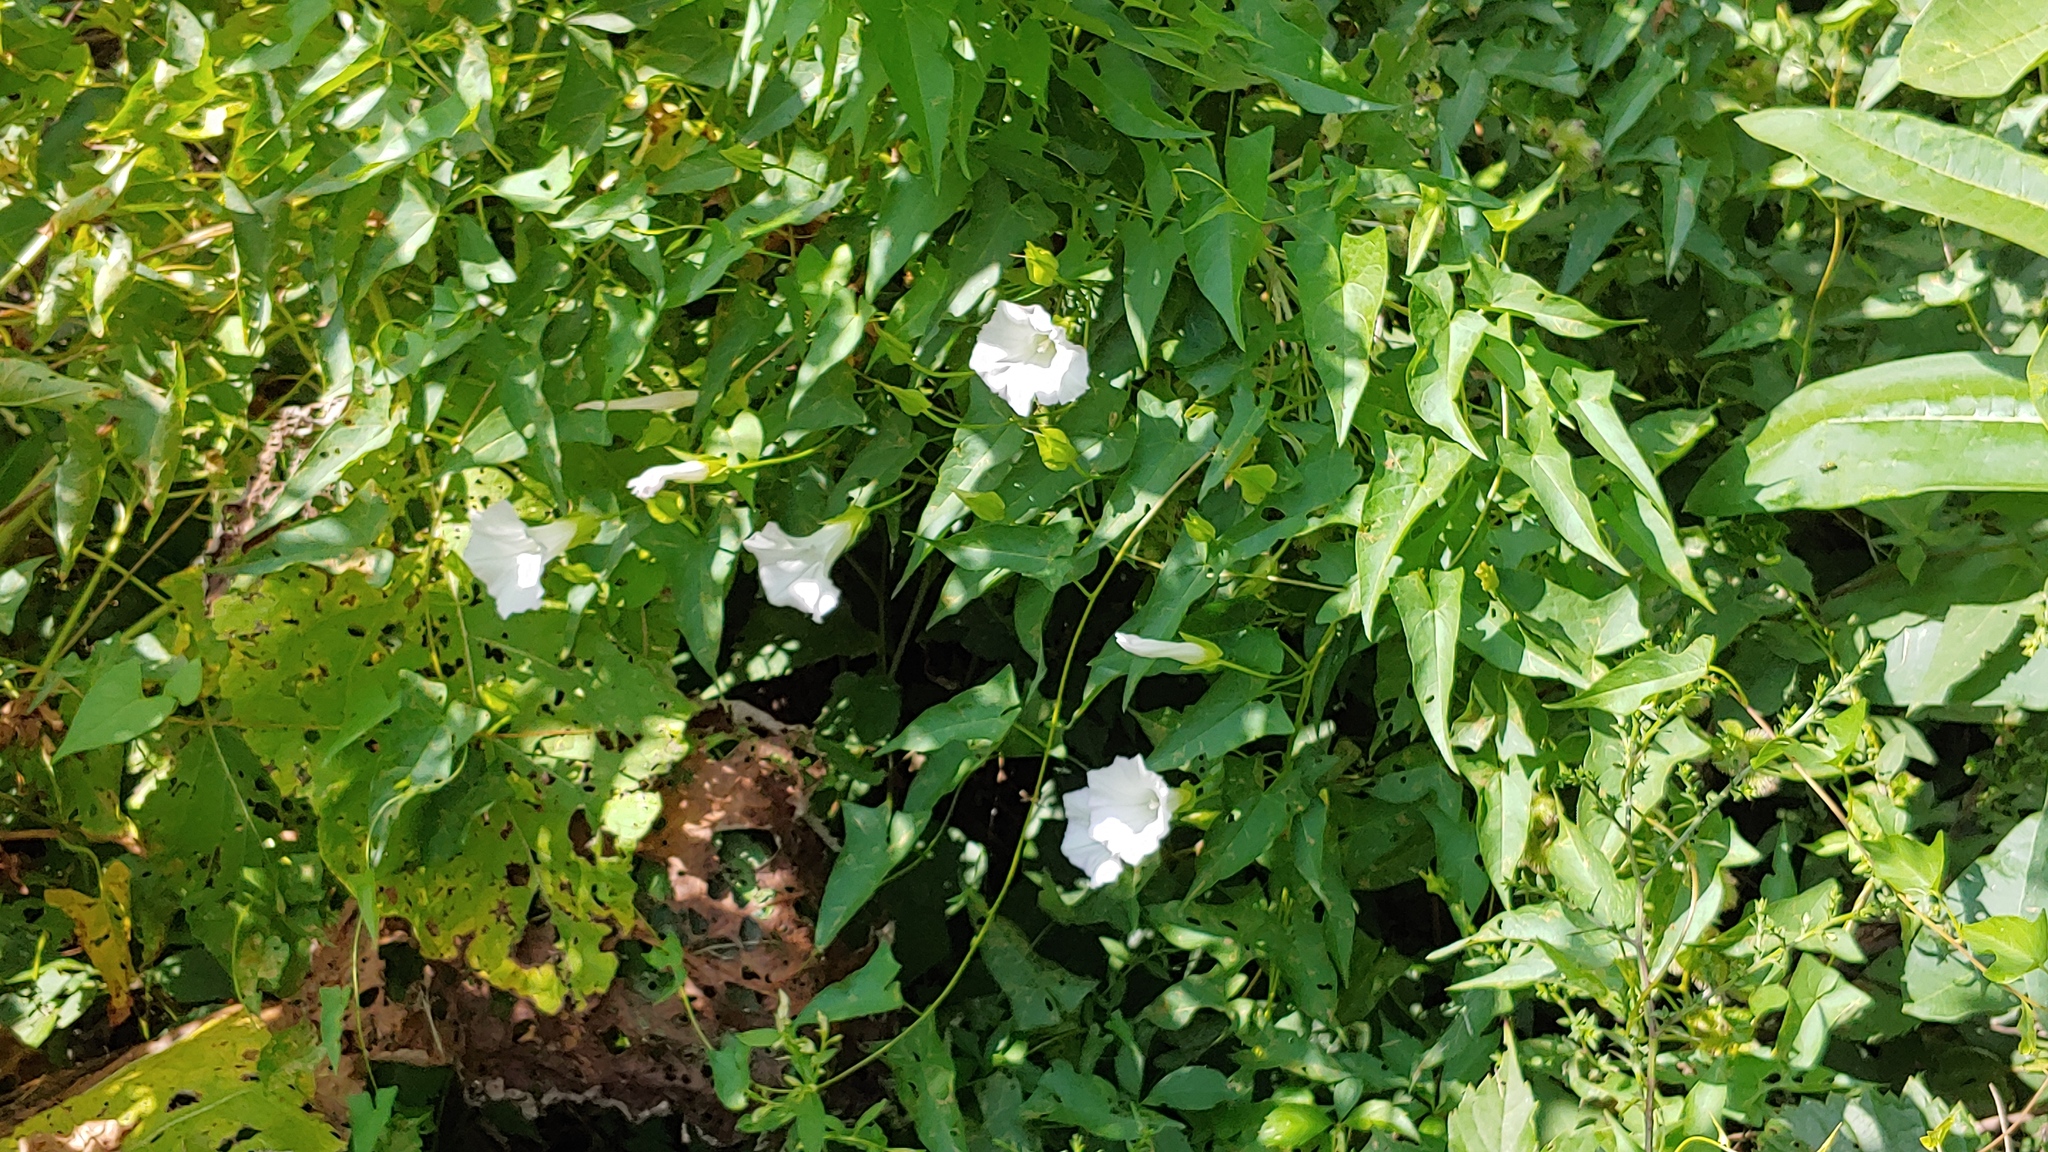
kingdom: Plantae
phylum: Tracheophyta
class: Magnoliopsida
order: Solanales
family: Convolvulaceae
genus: Calystegia
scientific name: Calystegia sepium
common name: Hedge bindweed
